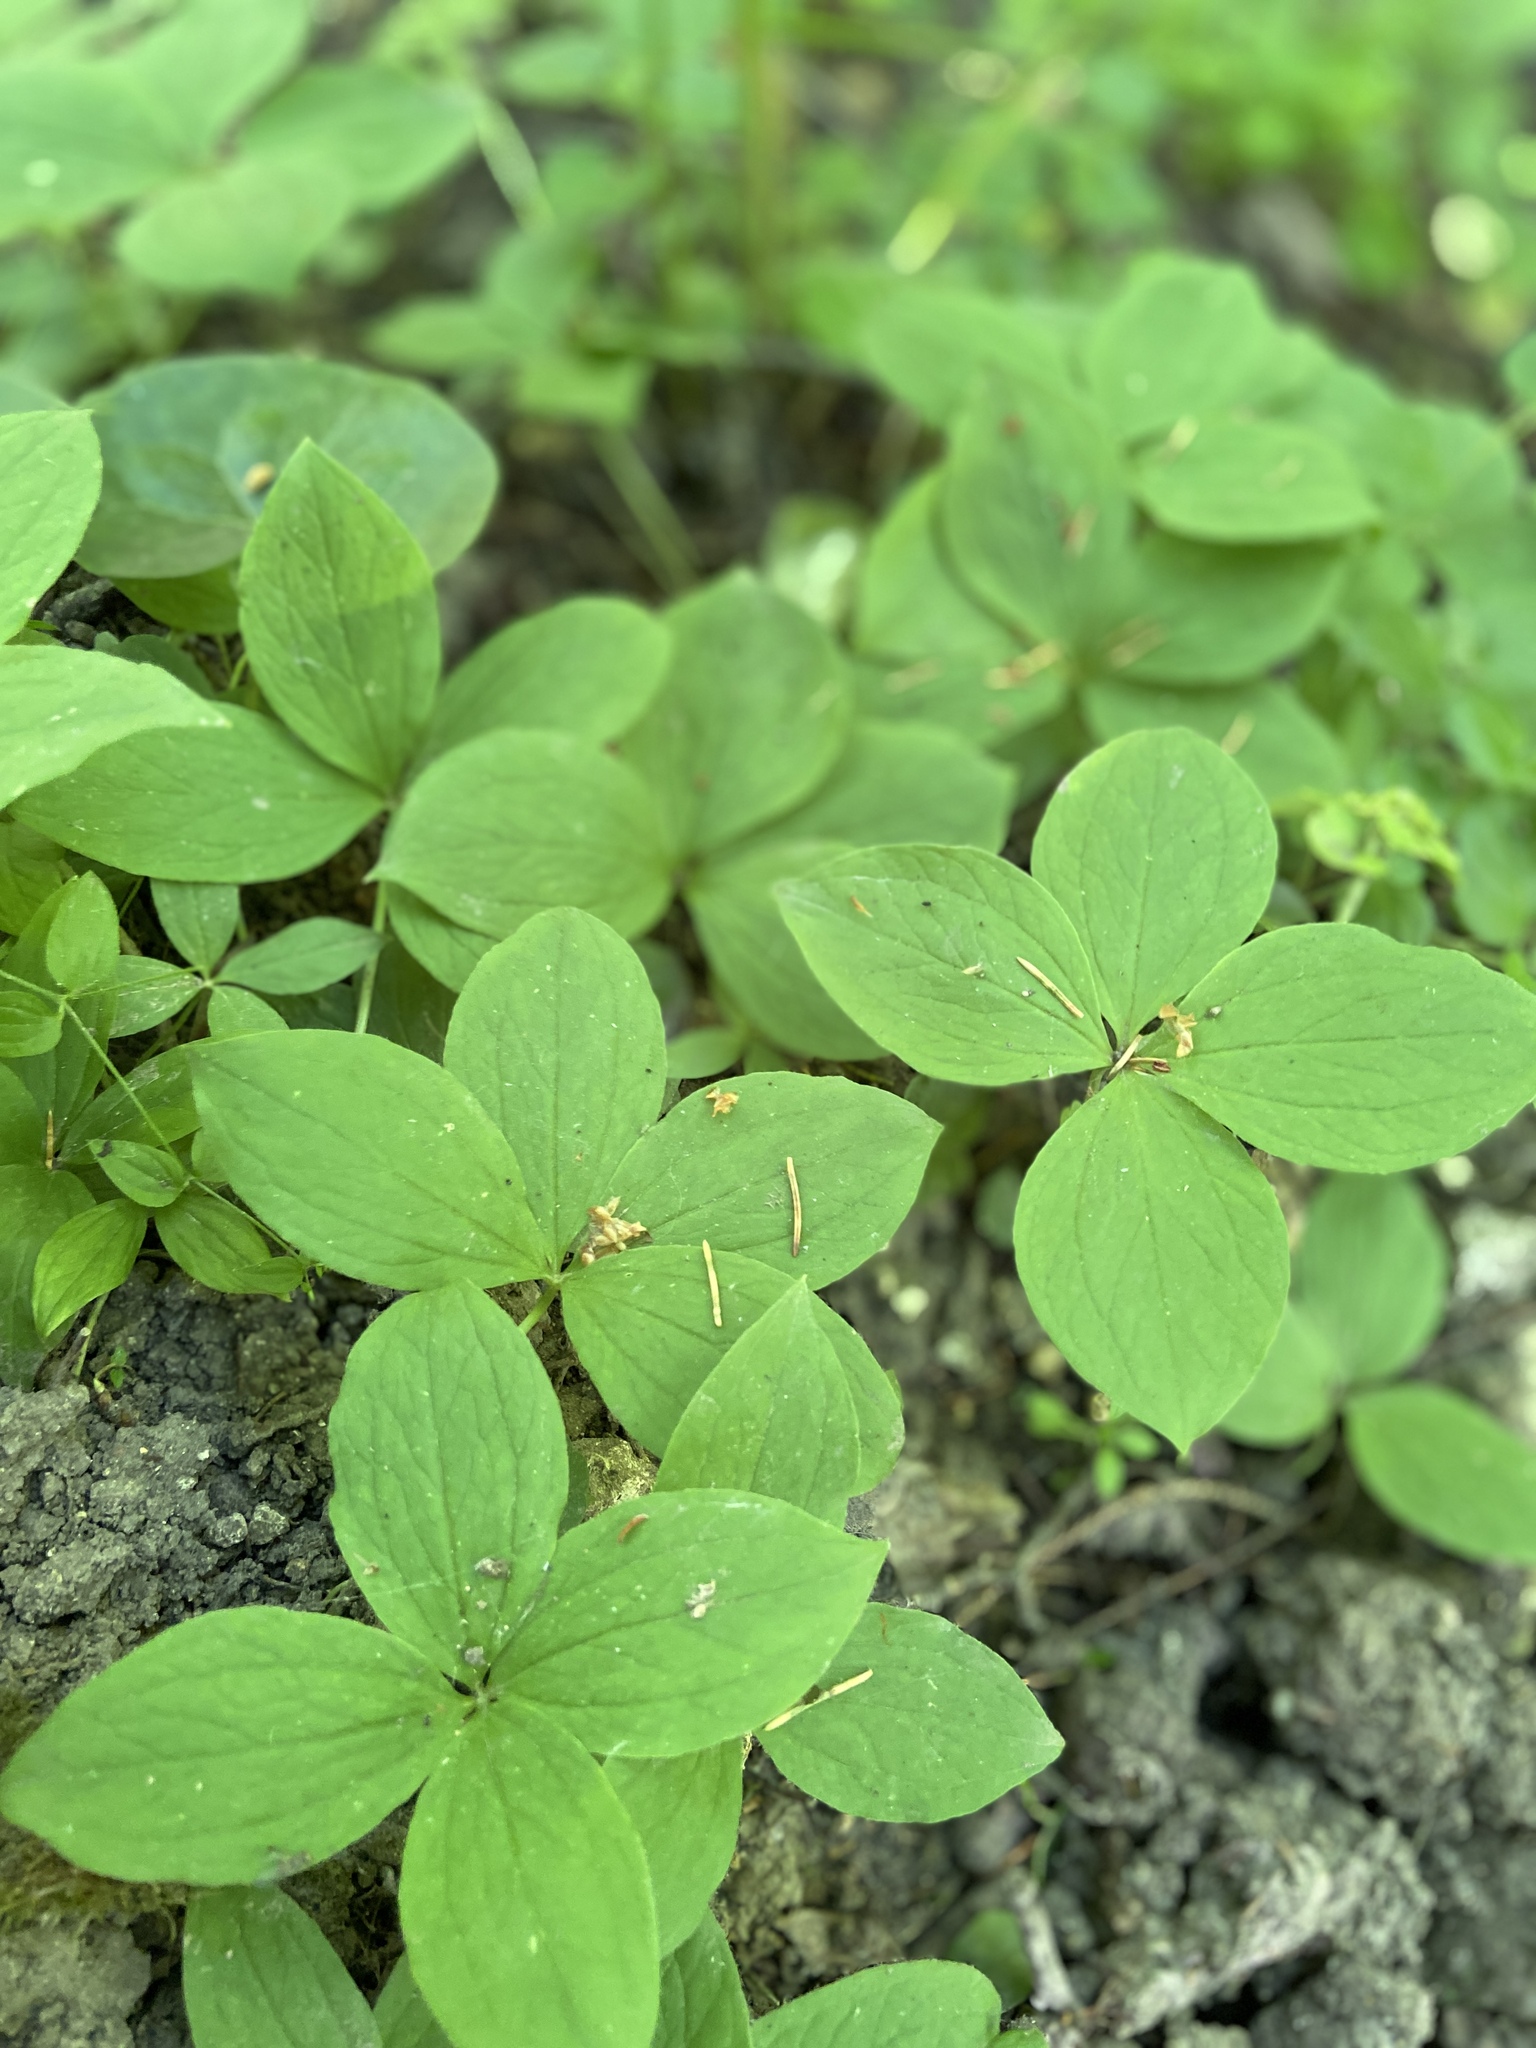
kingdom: Plantae
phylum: Tracheophyta
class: Liliopsida
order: Liliales
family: Melanthiaceae
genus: Paris
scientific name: Paris quadrifolia
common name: Herb-paris
